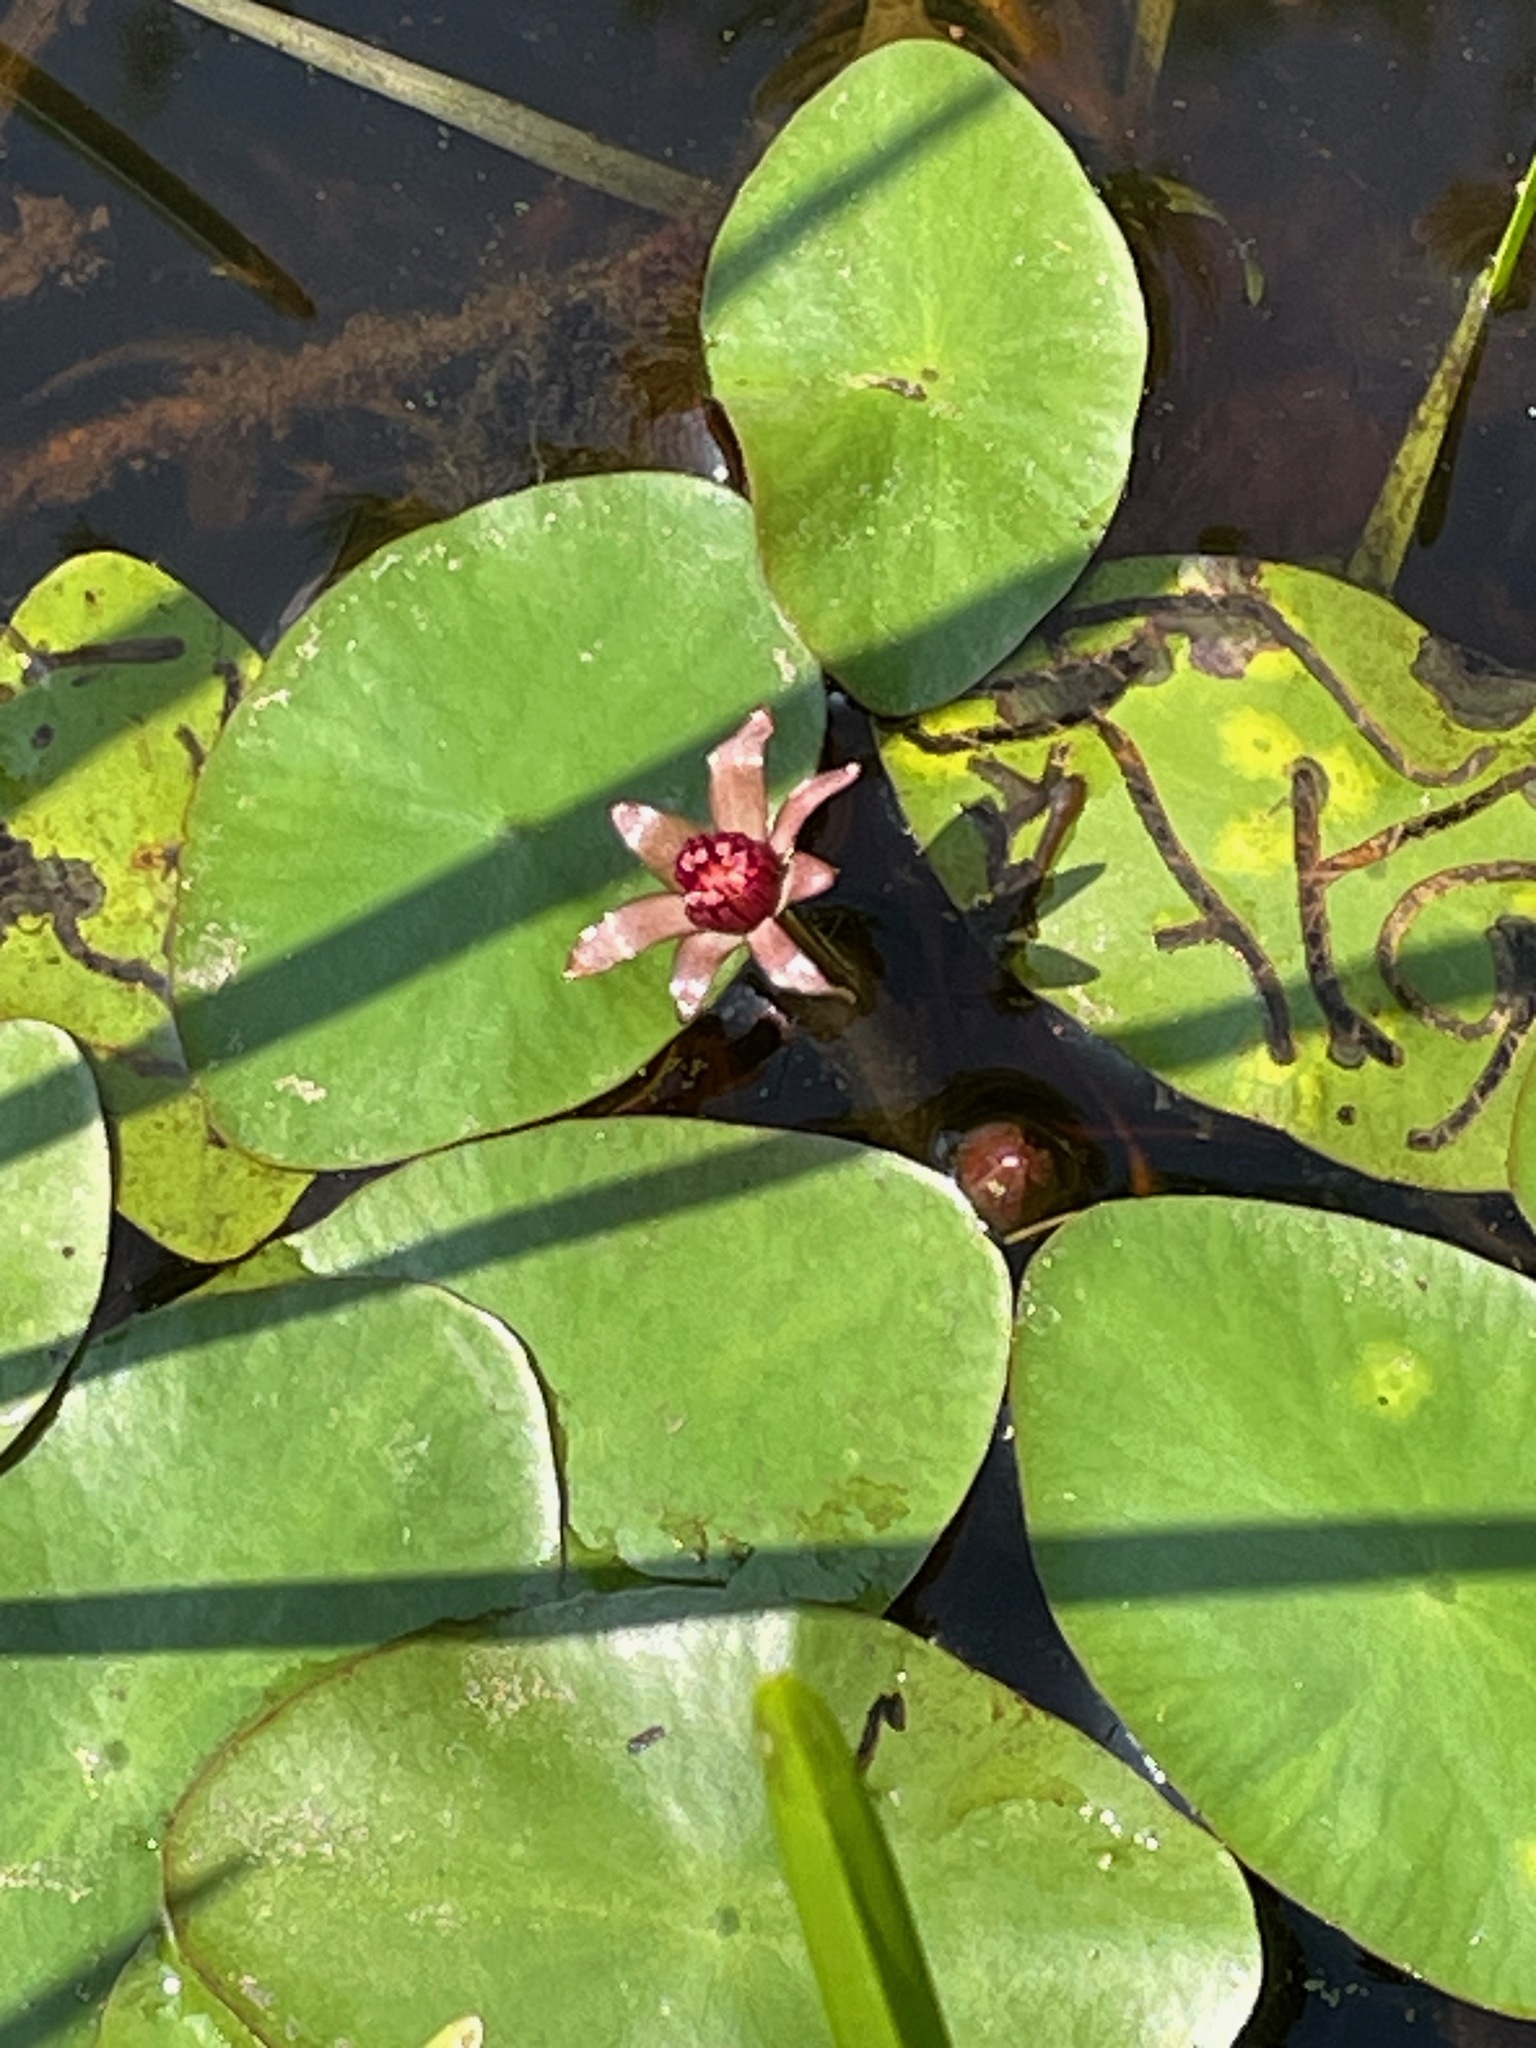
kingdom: Plantae
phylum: Tracheophyta
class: Magnoliopsida
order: Nymphaeales
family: Cabombaceae
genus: Brasenia
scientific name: Brasenia schreberi
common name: Water-shield
